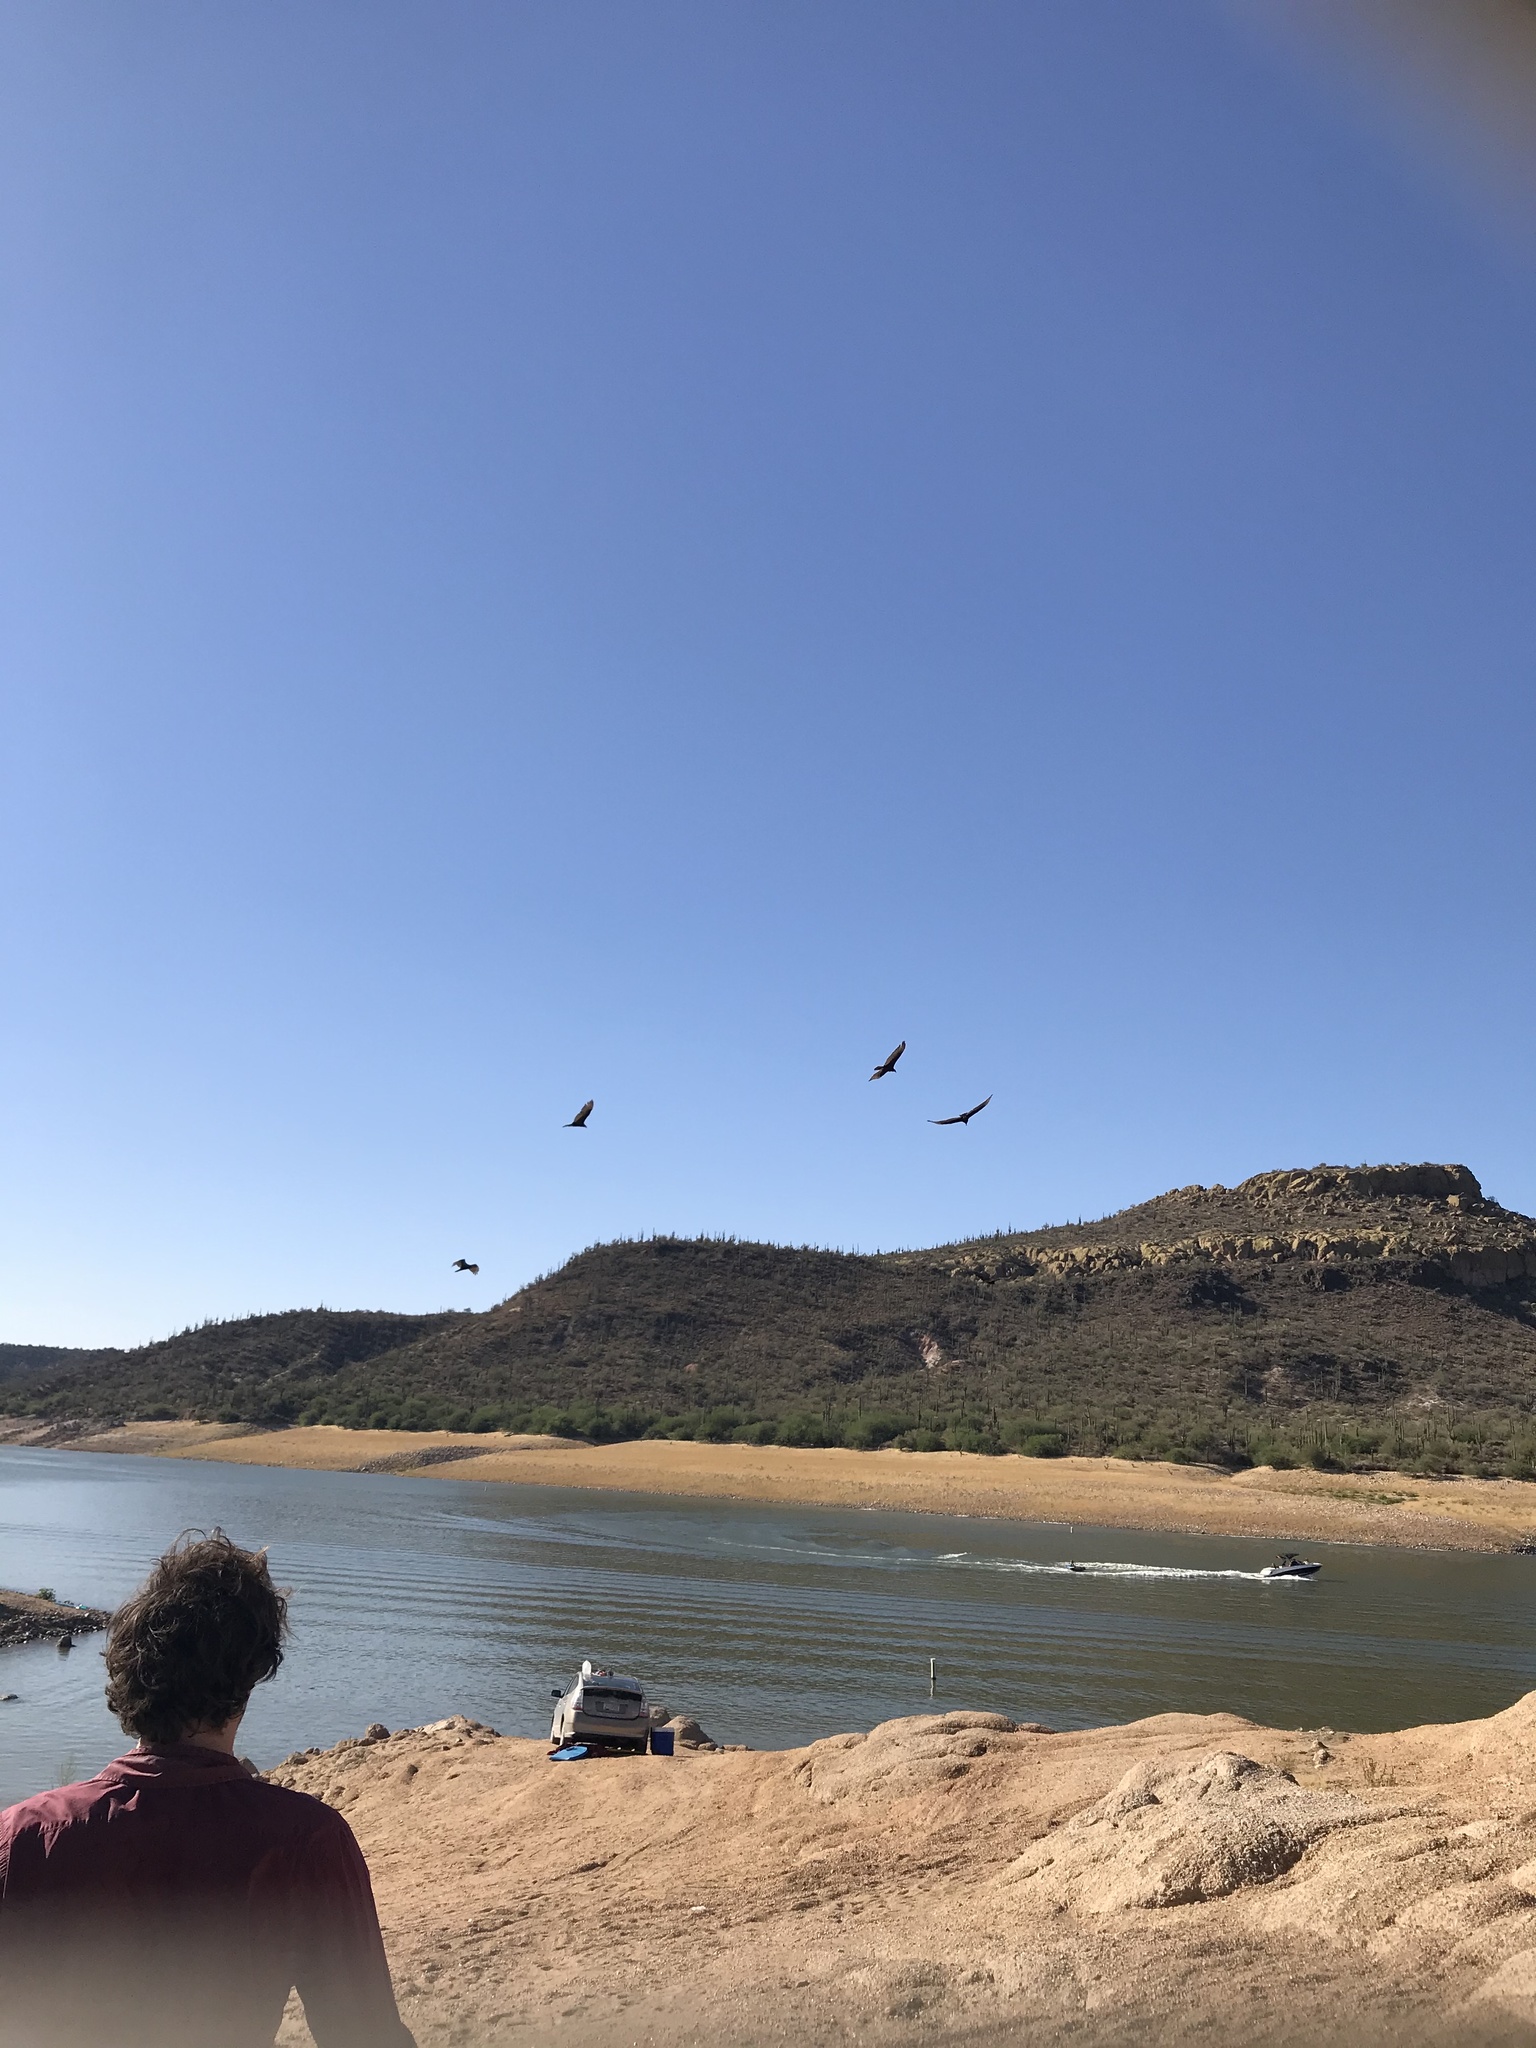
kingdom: Animalia
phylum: Chordata
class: Aves
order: Accipitriformes
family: Cathartidae
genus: Cathartes
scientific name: Cathartes aura
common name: Turkey vulture
